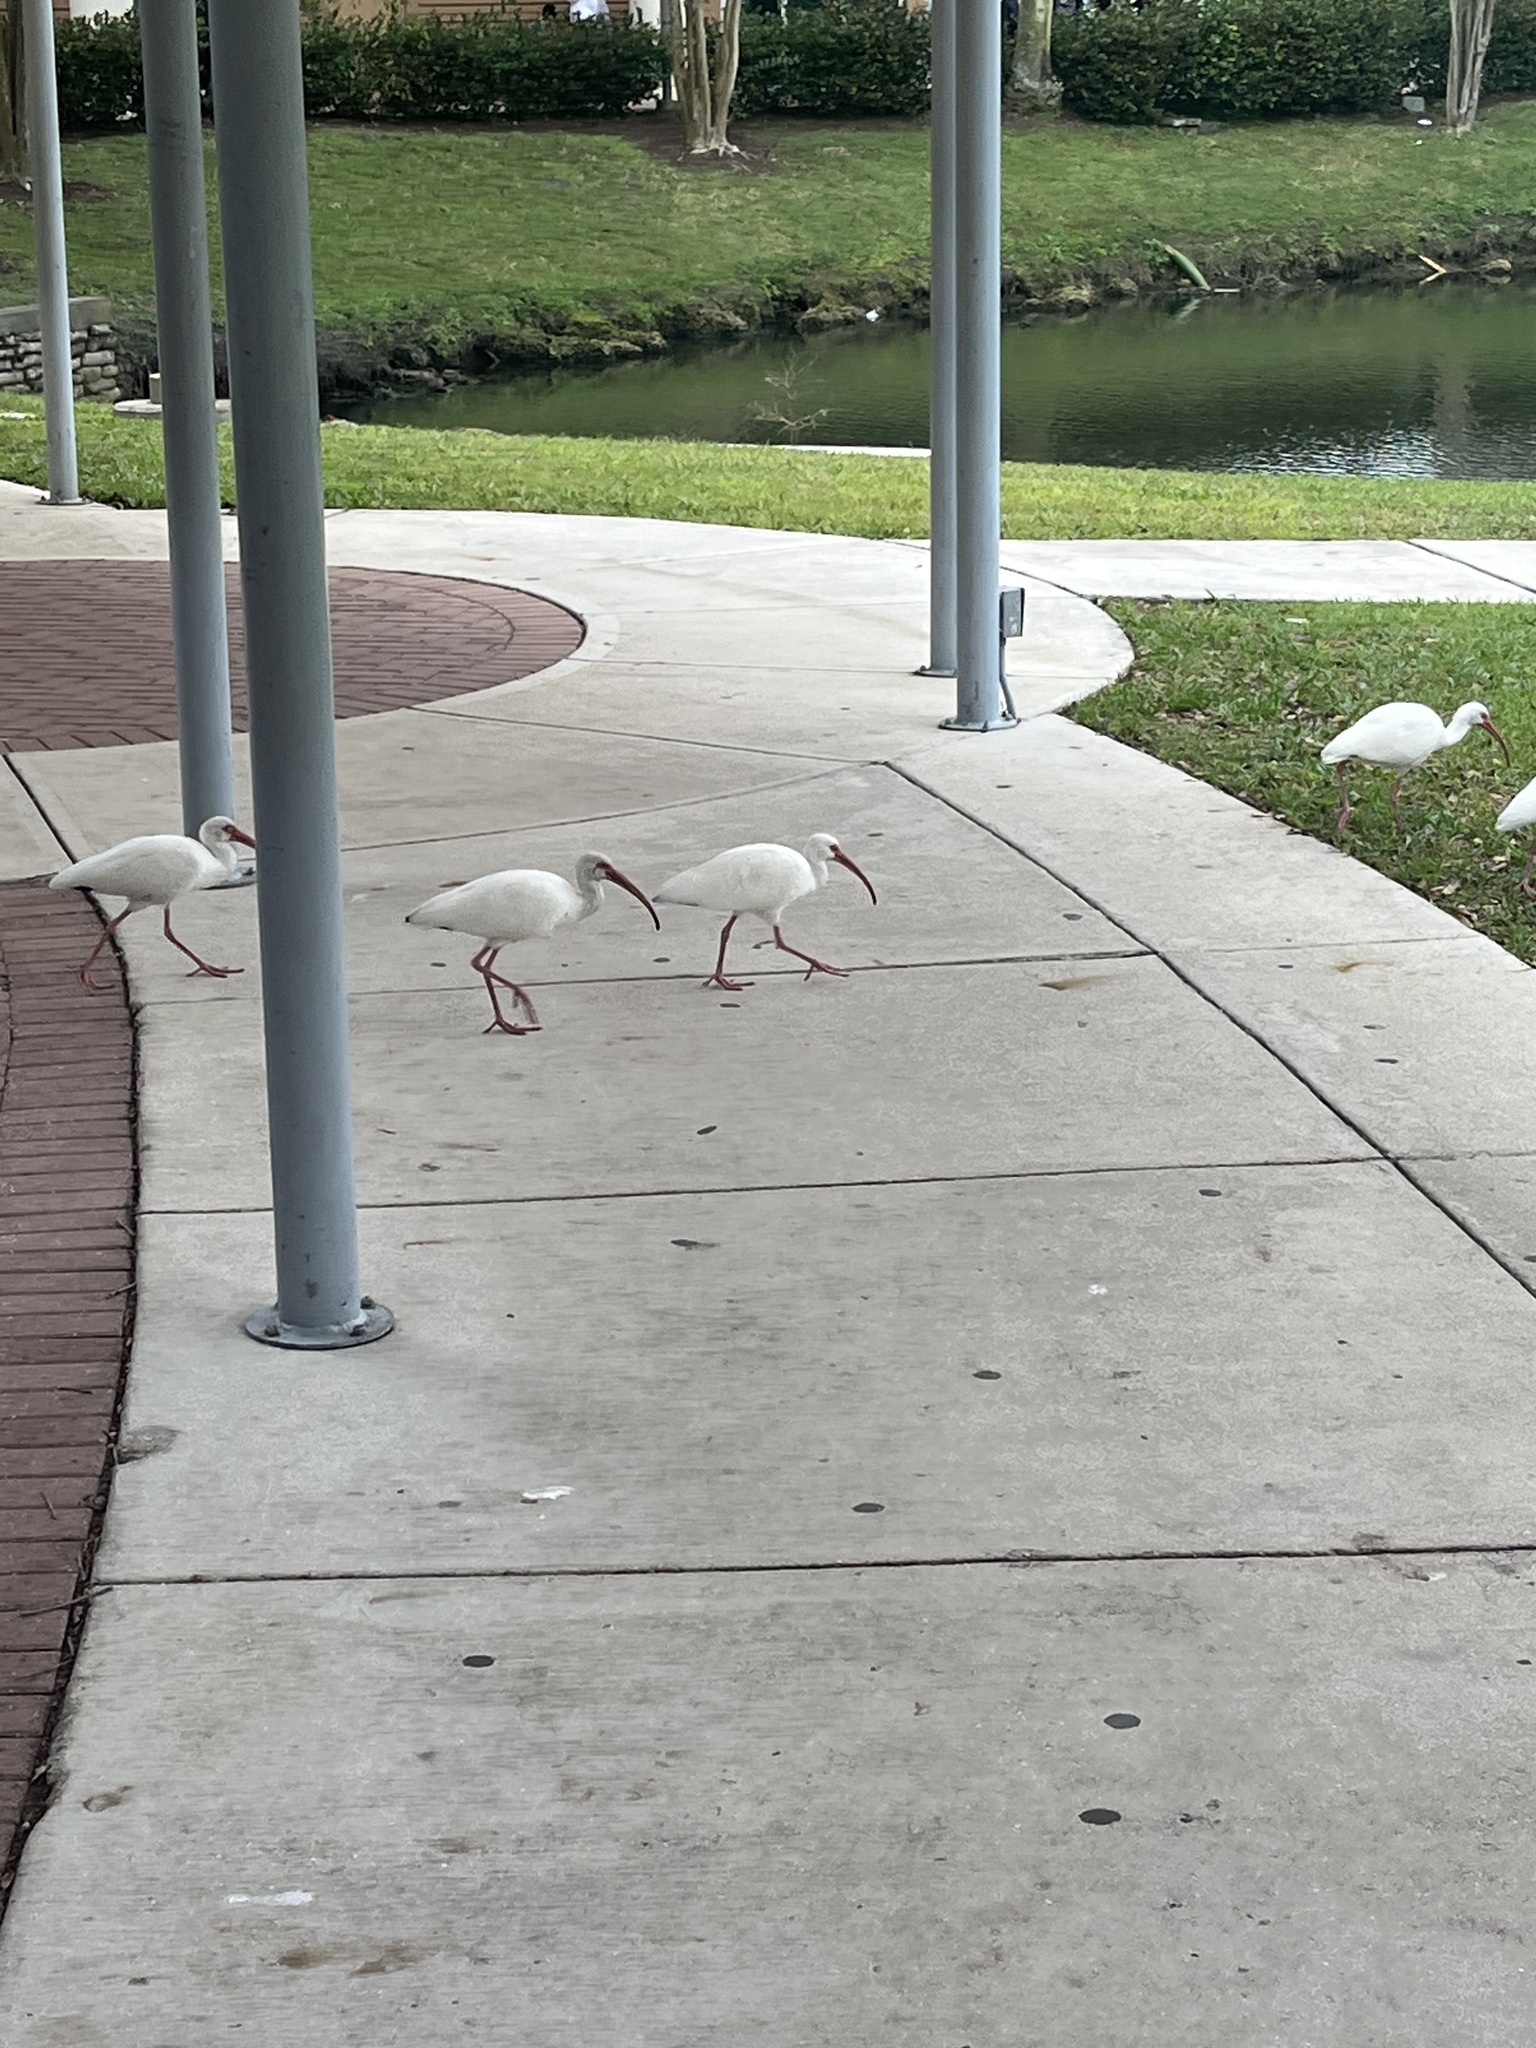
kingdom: Animalia
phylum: Chordata
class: Aves
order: Pelecaniformes
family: Threskiornithidae
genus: Eudocimus
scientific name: Eudocimus albus
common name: White ibis
